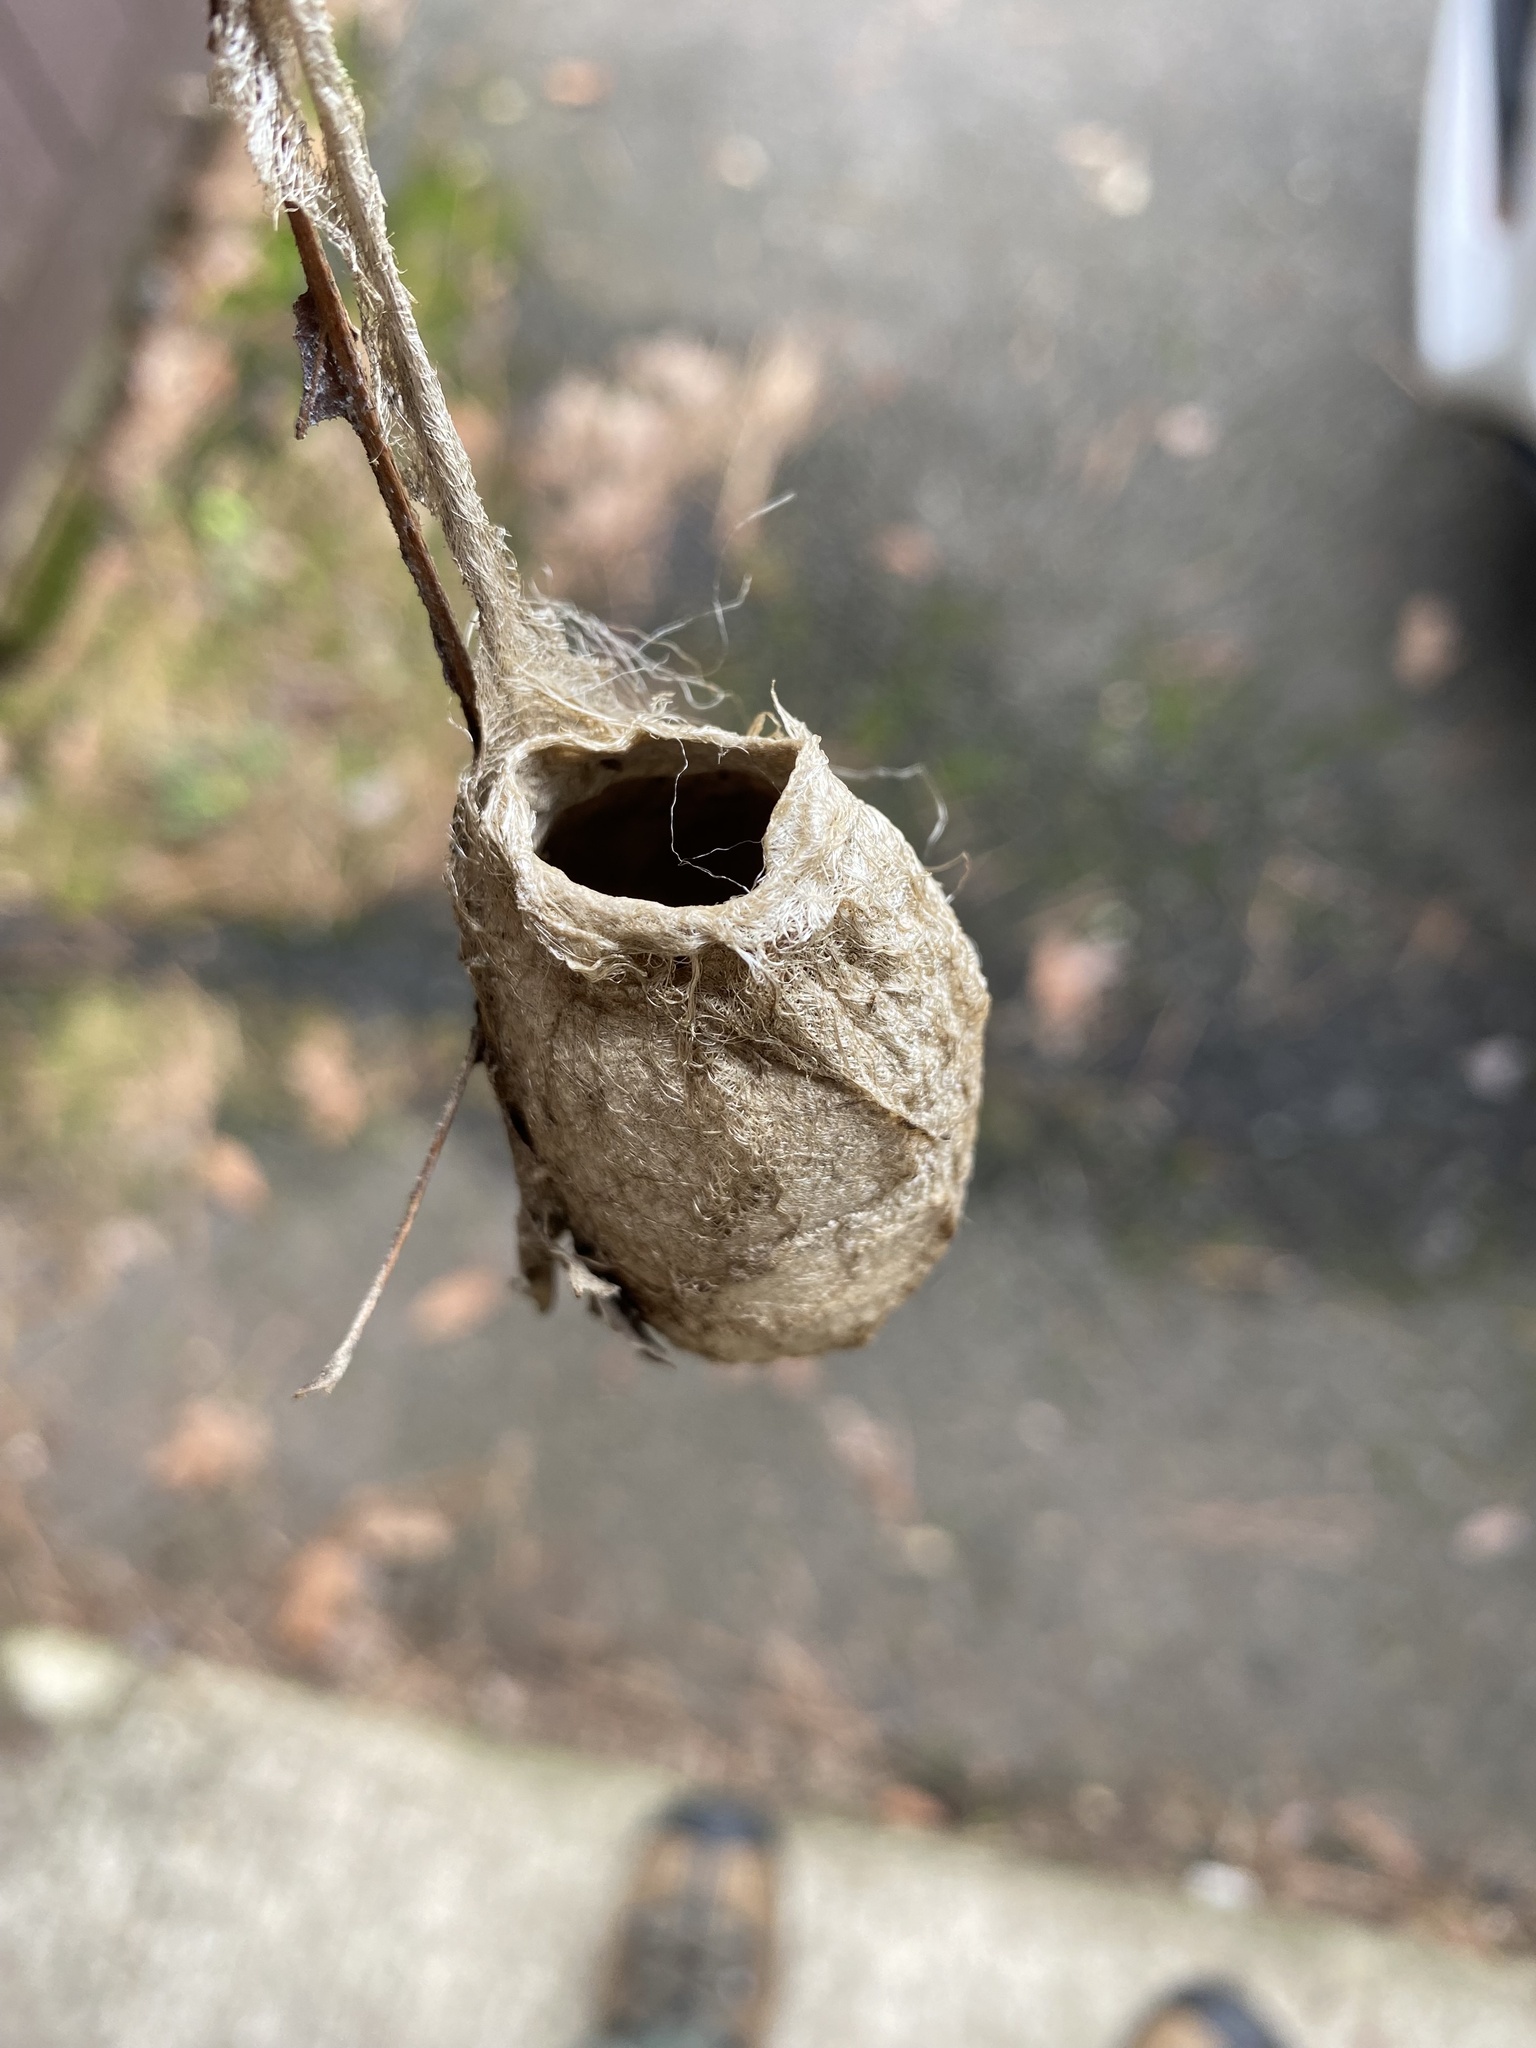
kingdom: Animalia
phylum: Arthropoda
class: Insecta
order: Lepidoptera
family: Saturniidae
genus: Antheraea
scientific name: Antheraea polyphemus
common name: Polyphemus moth
